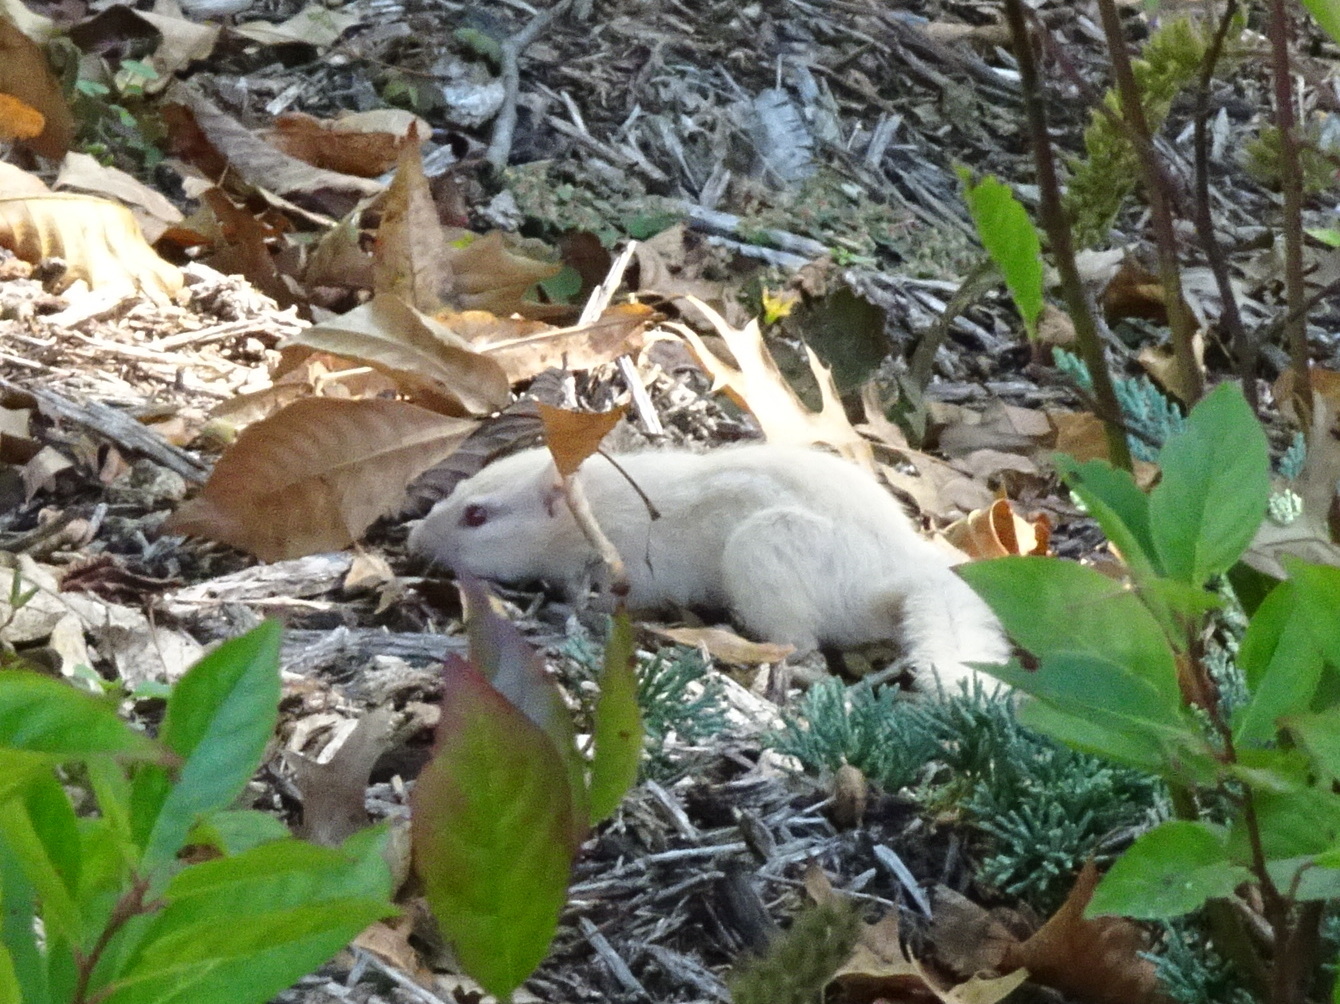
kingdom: Animalia
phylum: Chordata
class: Mammalia
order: Rodentia
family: Sciuridae
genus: Tamias
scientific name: Tamias striatus
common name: Eastern chipmunk
